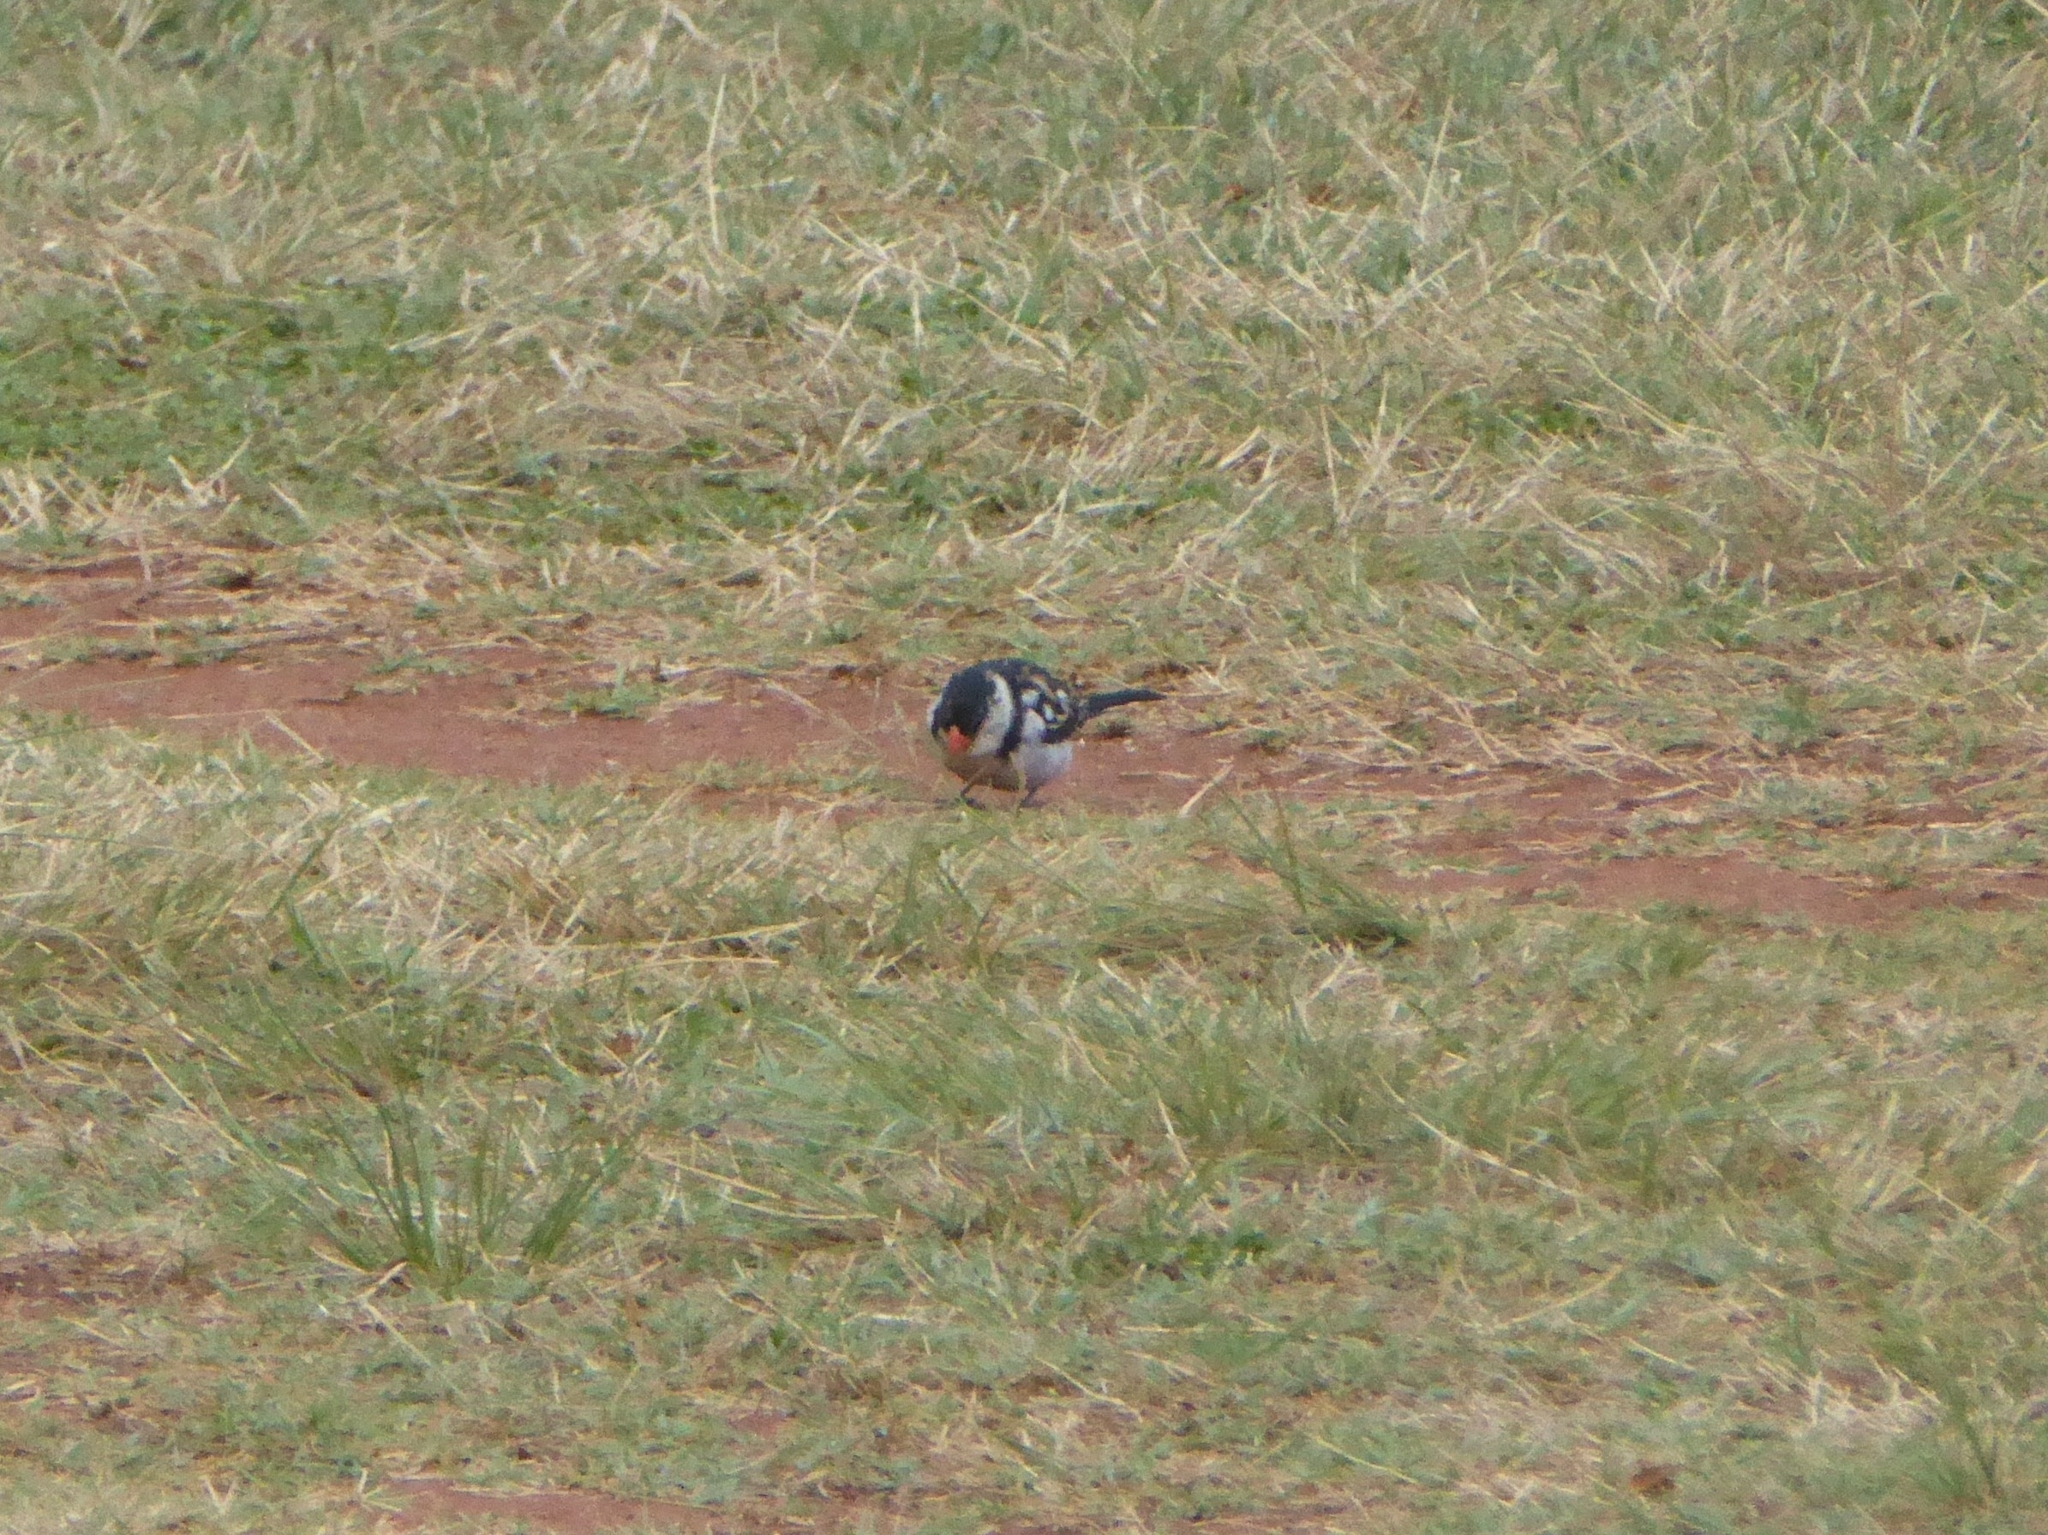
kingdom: Animalia
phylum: Chordata
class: Aves
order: Passeriformes
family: Viduidae
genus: Vidua
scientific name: Vidua macroura
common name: Pin-tailed whydah
